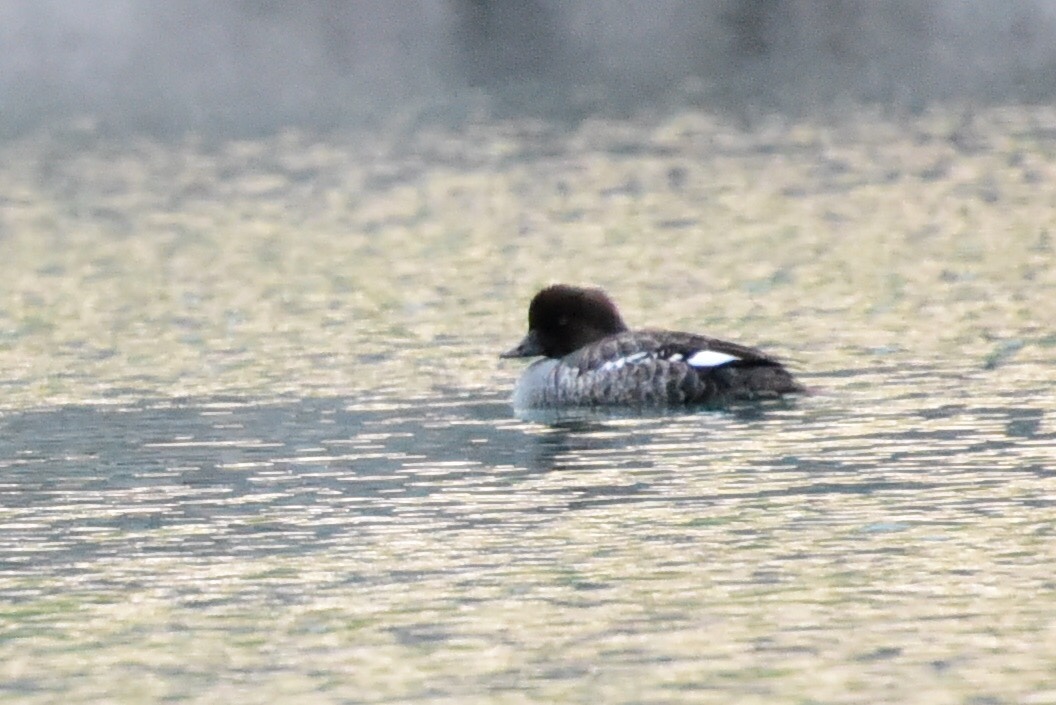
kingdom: Animalia
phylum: Chordata
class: Aves
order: Anseriformes
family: Anatidae
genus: Bucephala
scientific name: Bucephala clangula
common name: Common goldeneye
